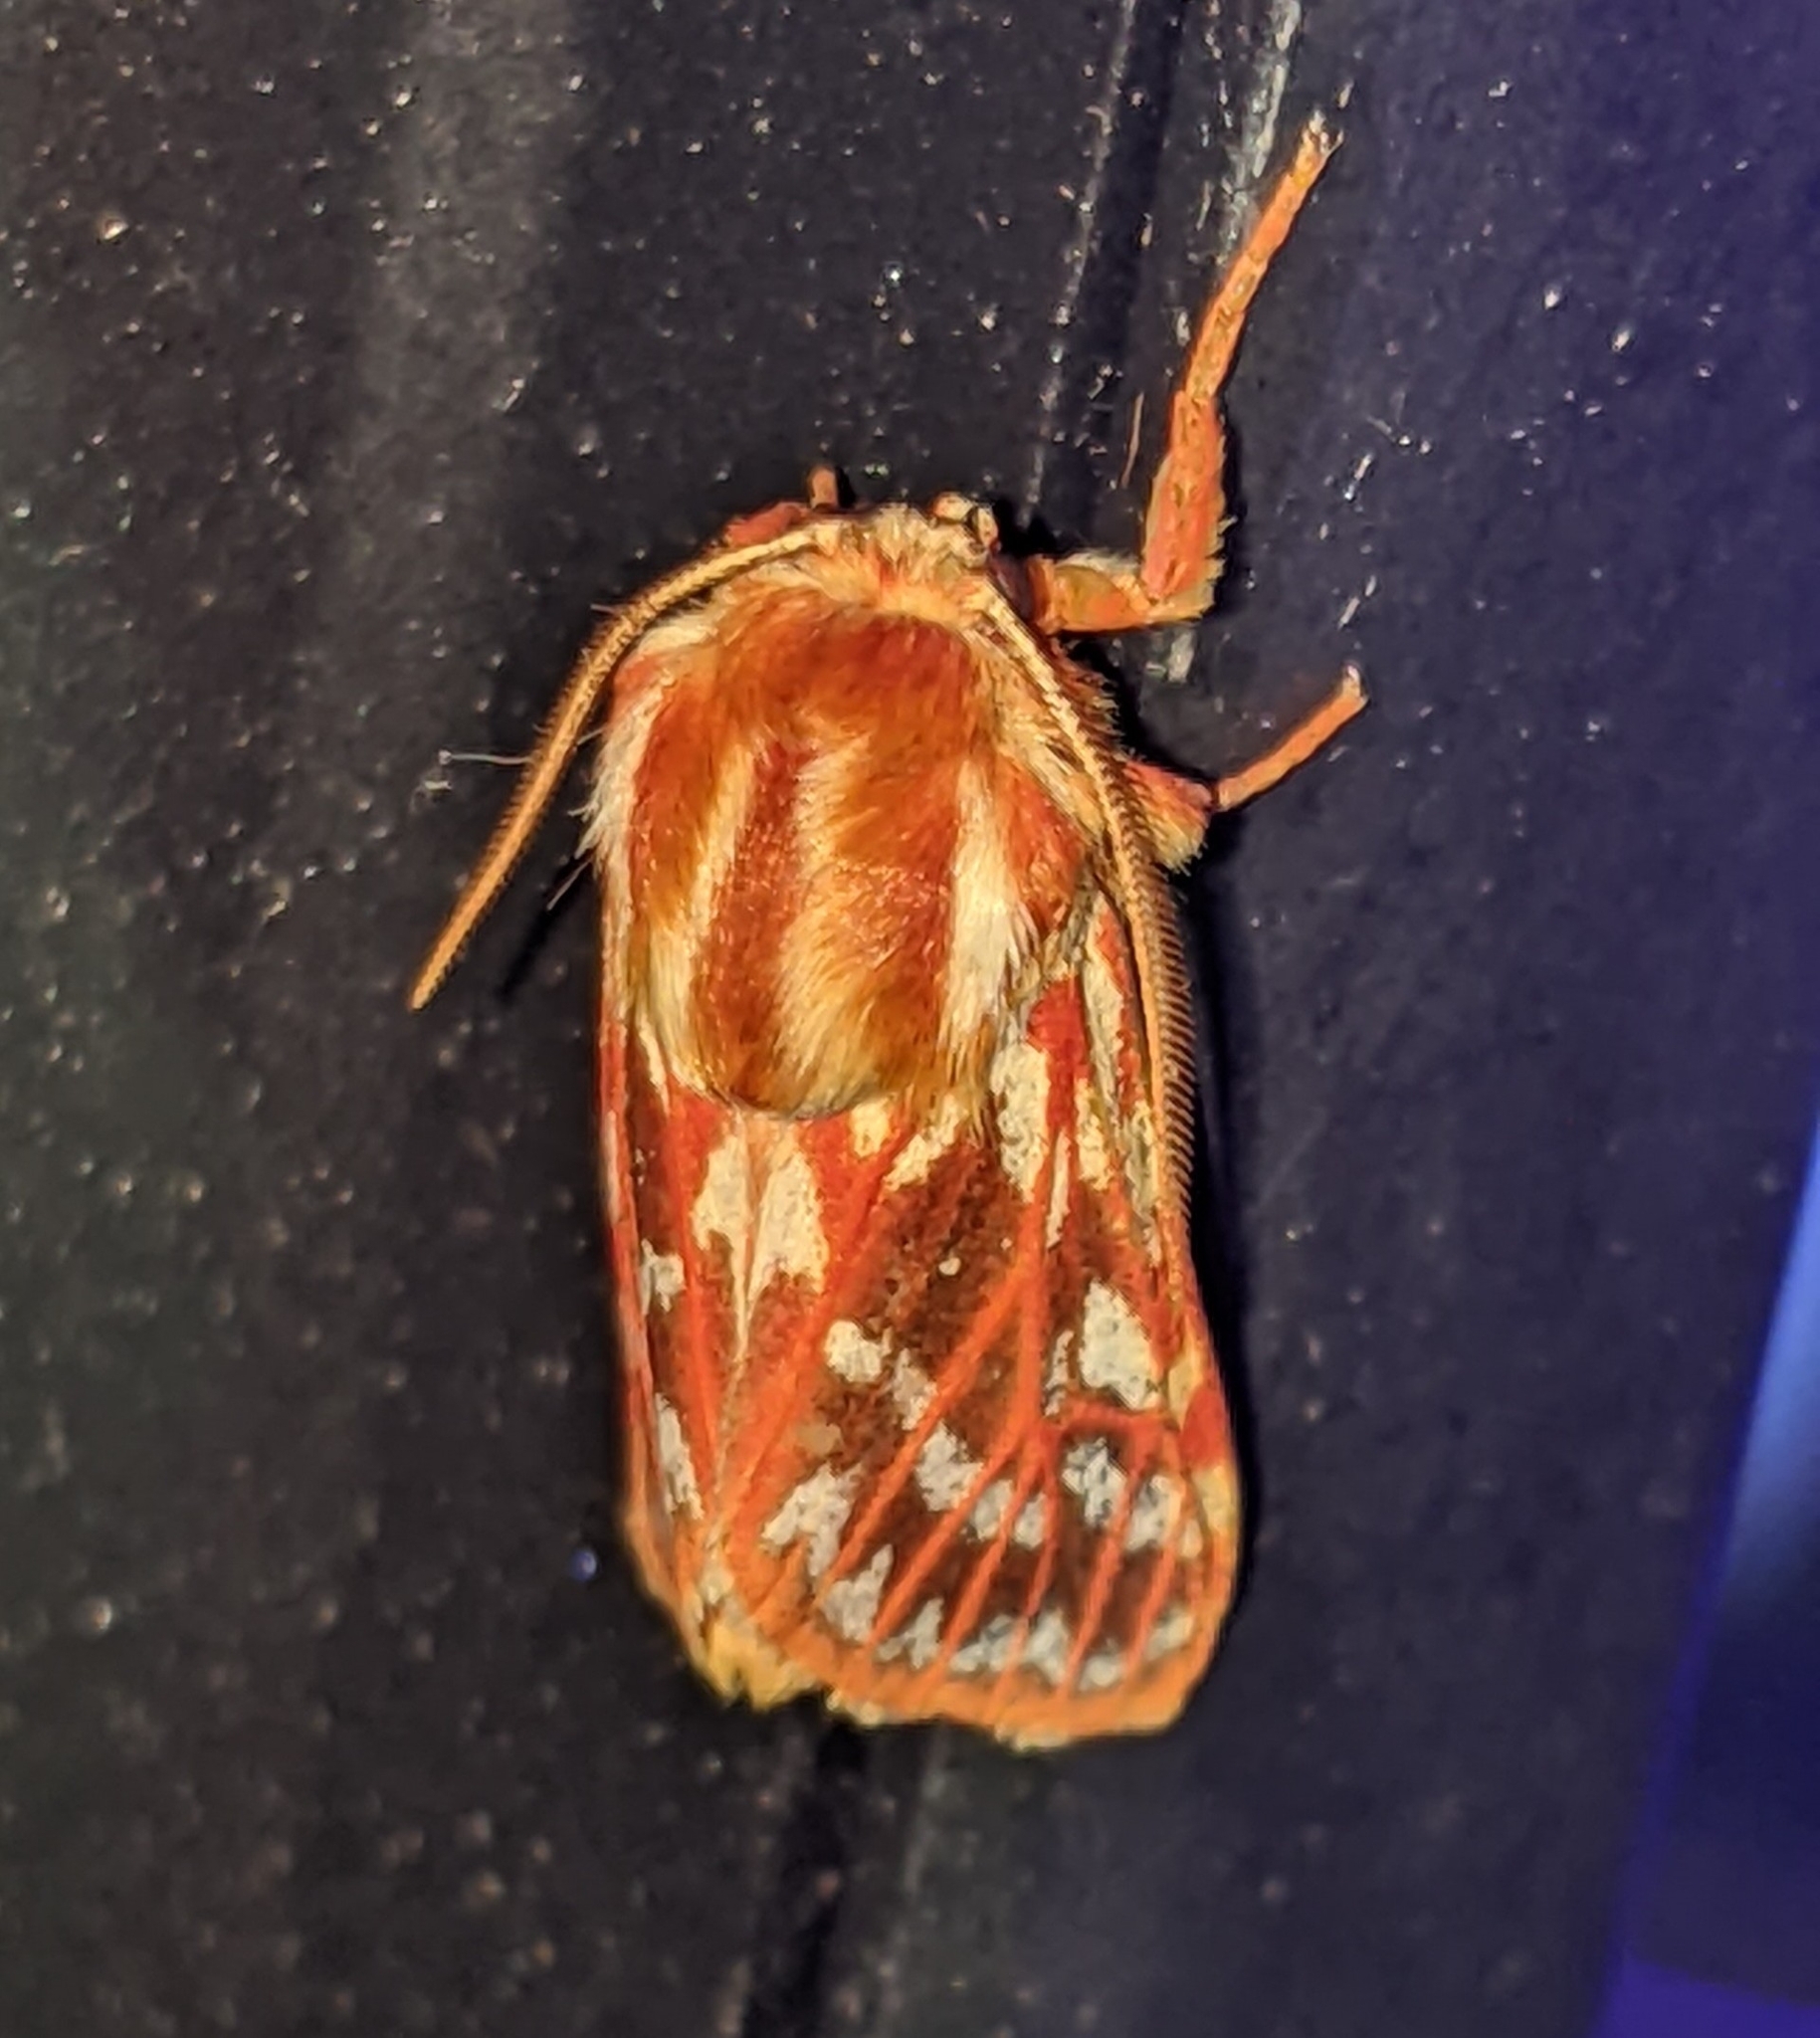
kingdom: Animalia
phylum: Arthropoda
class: Insecta
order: Lepidoptera
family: Erebidae
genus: Lophocampa
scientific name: Lophocampa roseata
